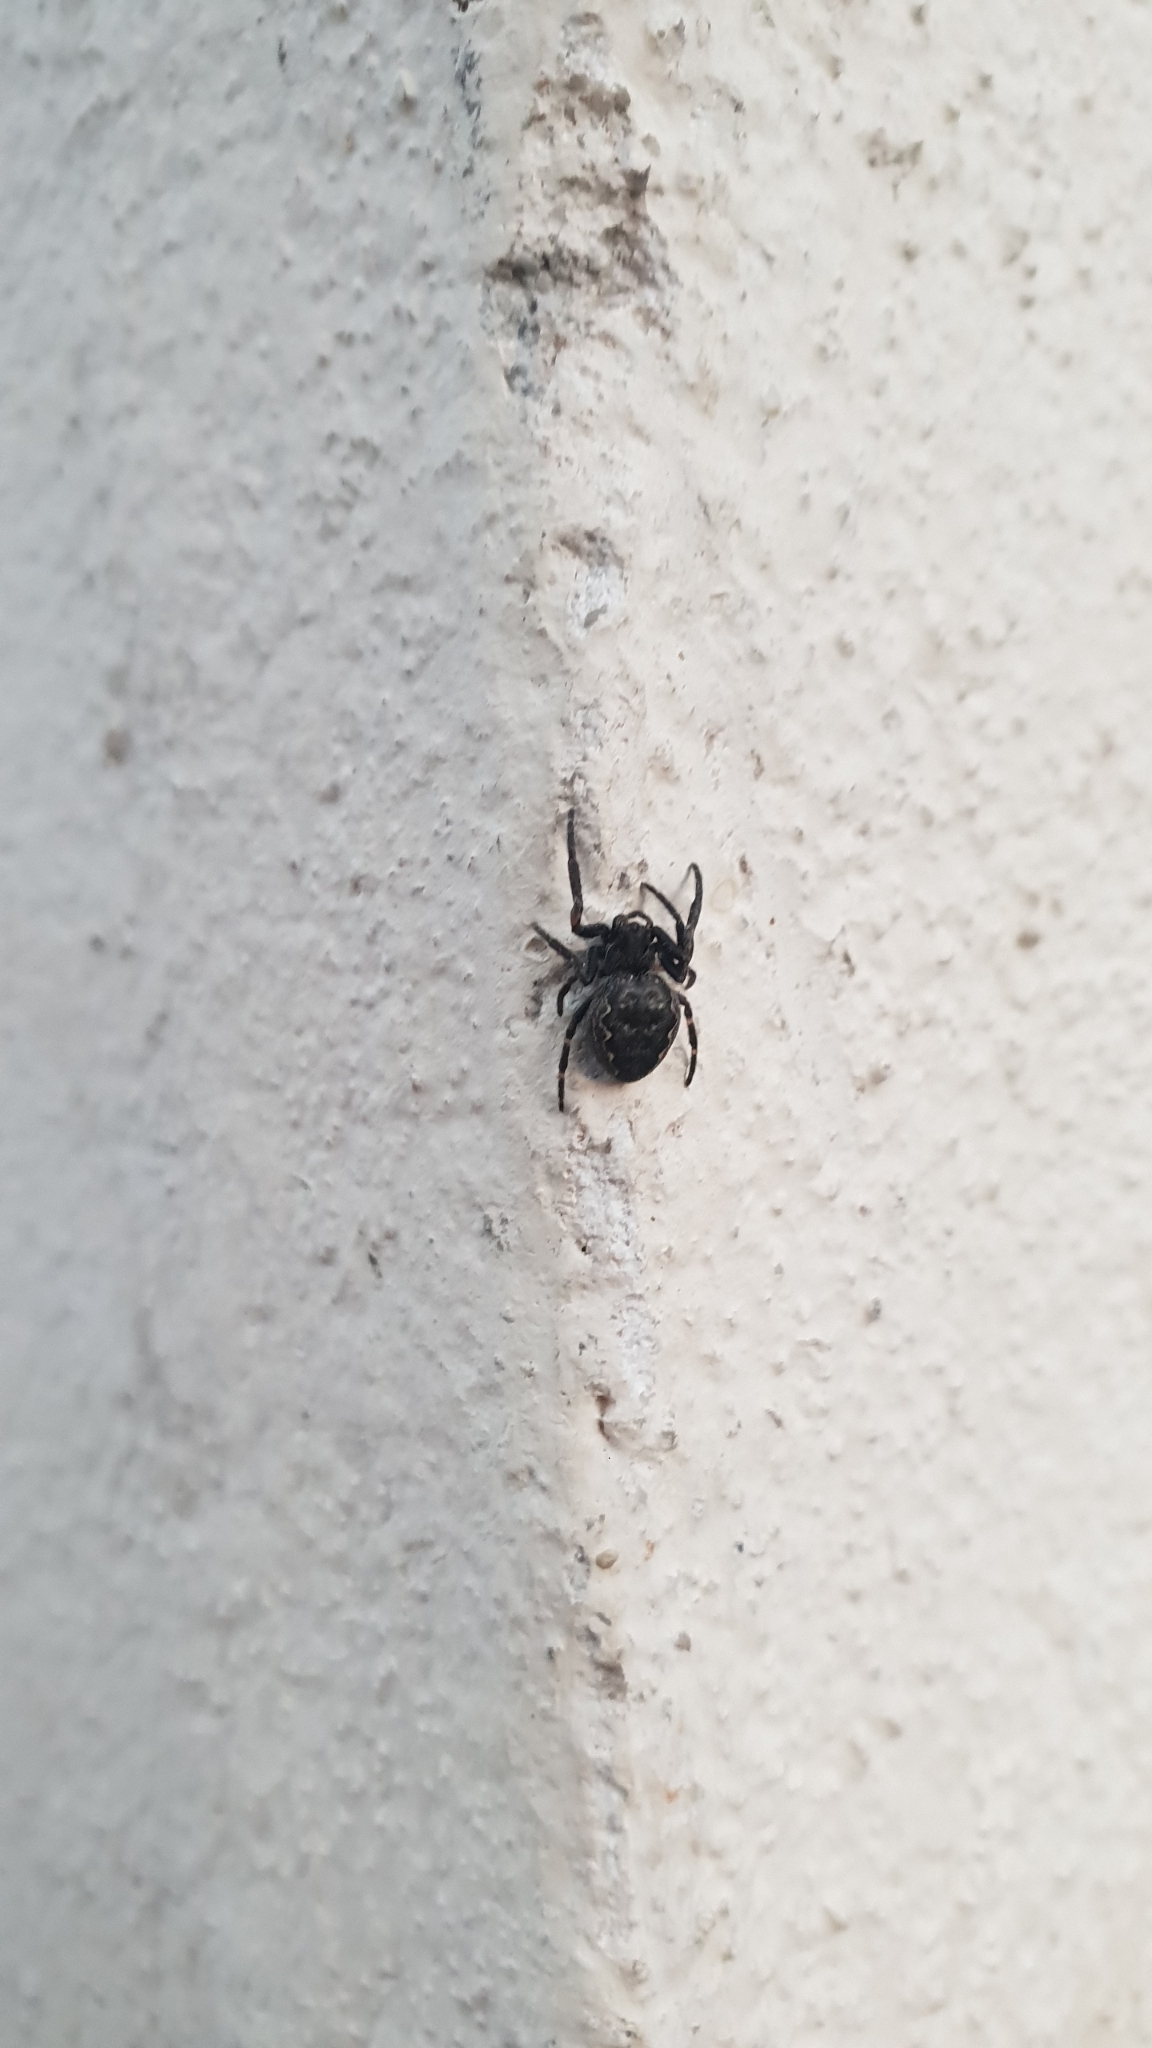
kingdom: Animalia
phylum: Arthropoda
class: Arachnida
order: Araneae
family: Araneidae
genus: Nuctenea
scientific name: Nuctenea umbratica
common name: Toad spider
